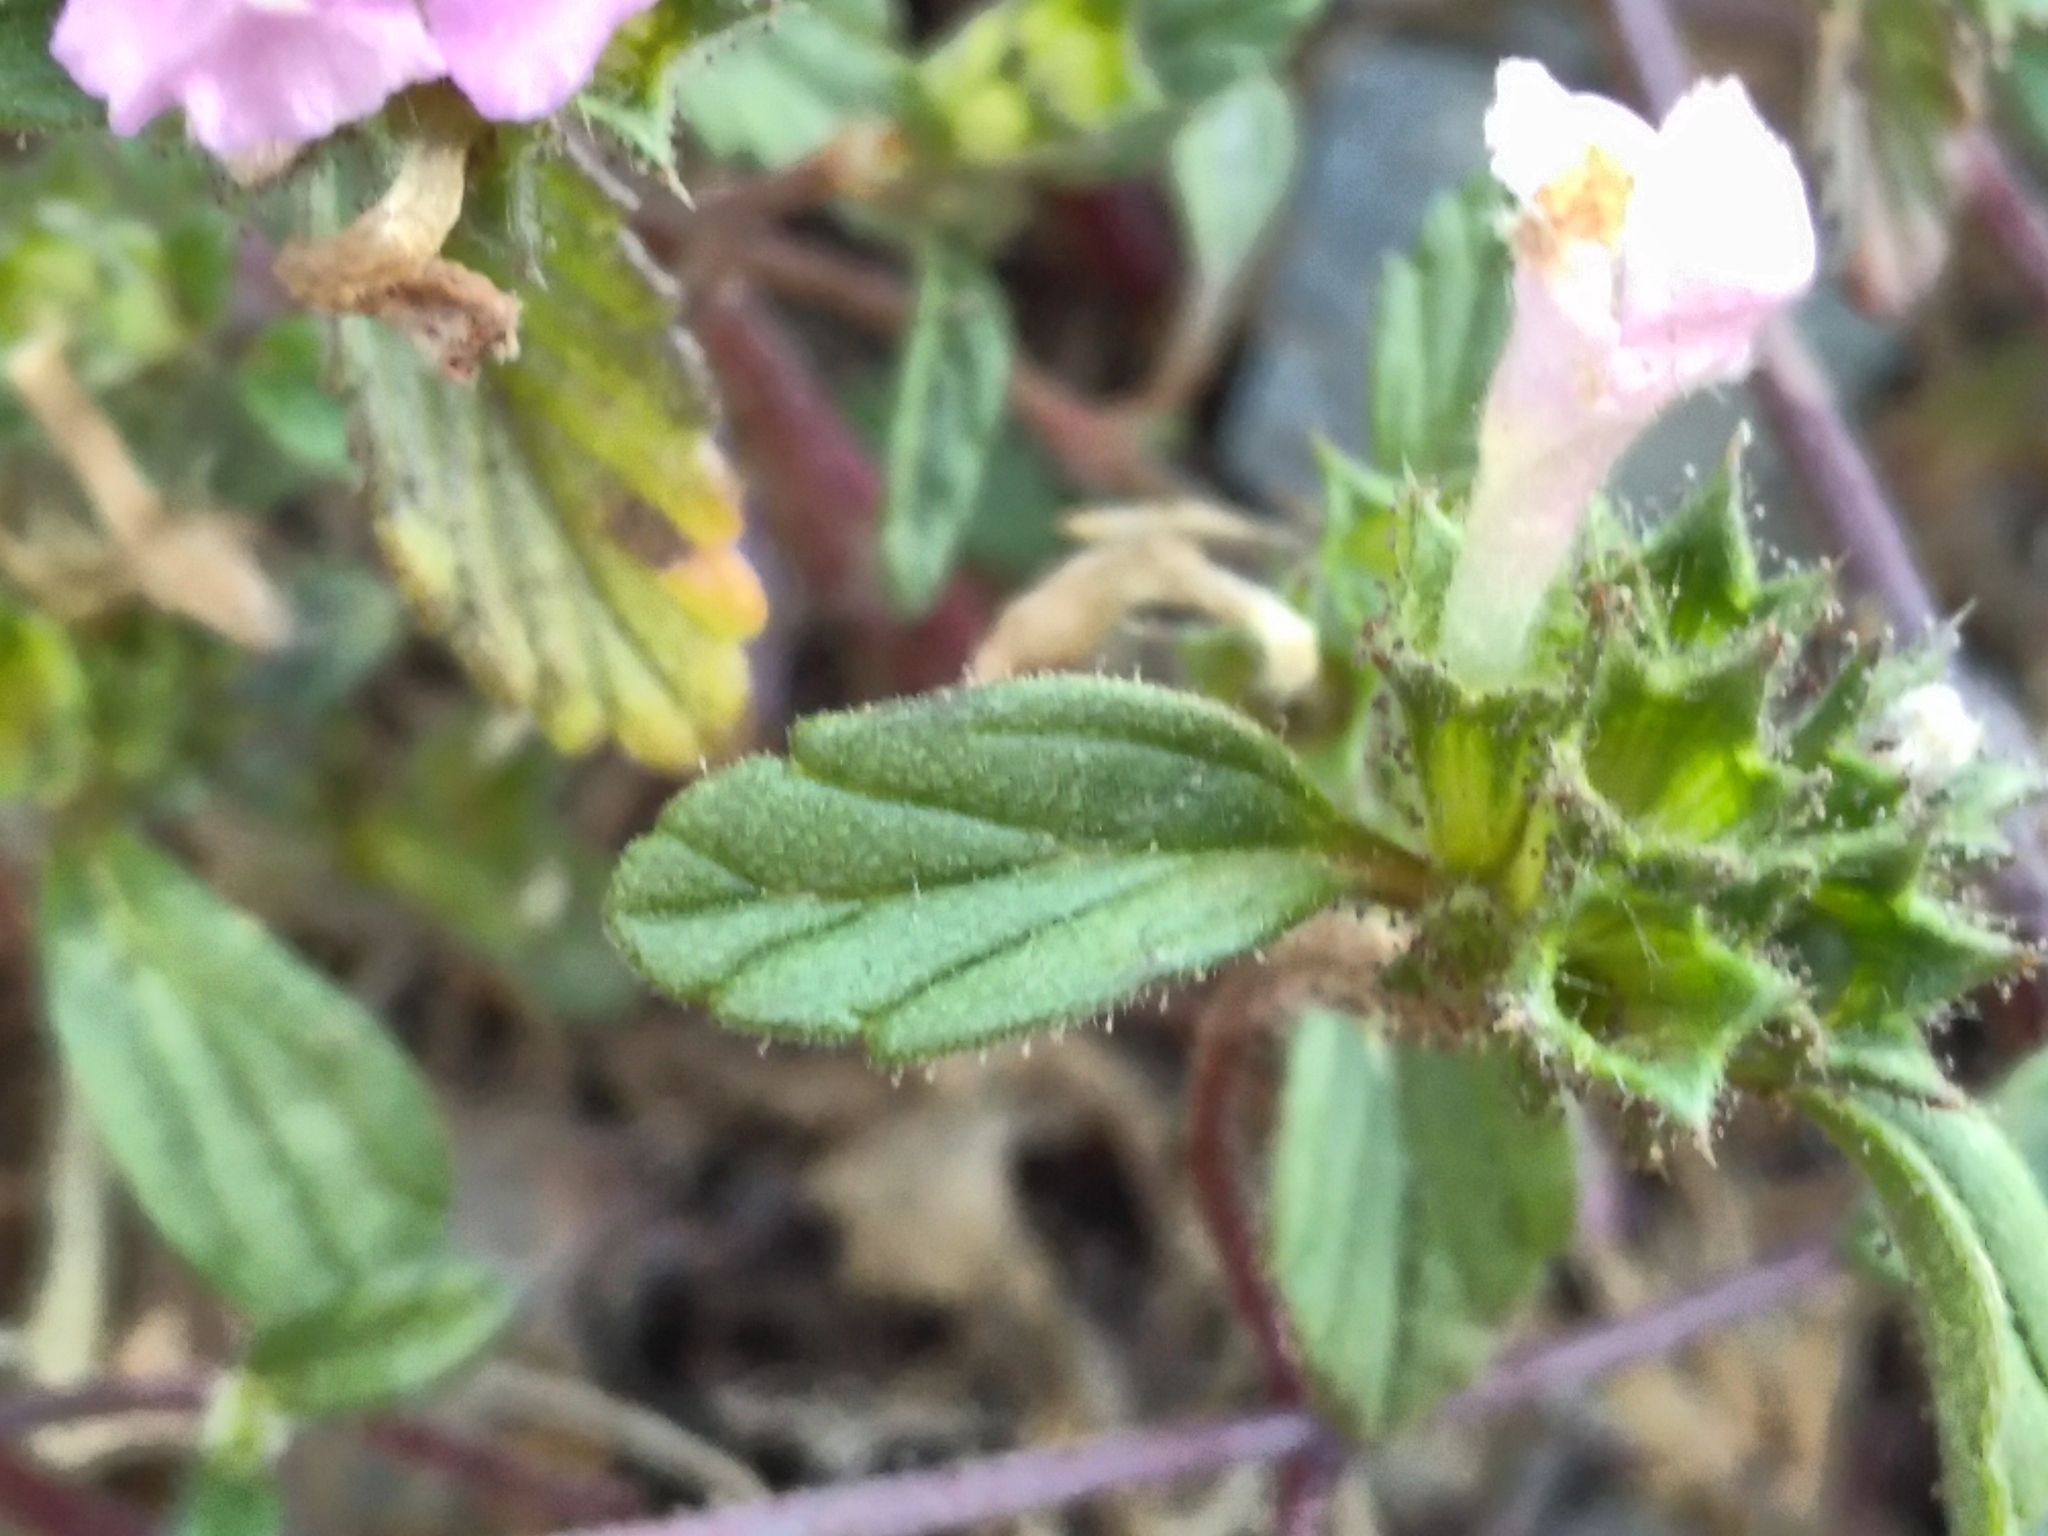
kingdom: Plantae
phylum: Tracheophyta
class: Magnoliopsida
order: Lamiales
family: Lamiaceae
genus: Galeopsis
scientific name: Galeopsis ladanum
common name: Broad-leaved hemp-nettle
